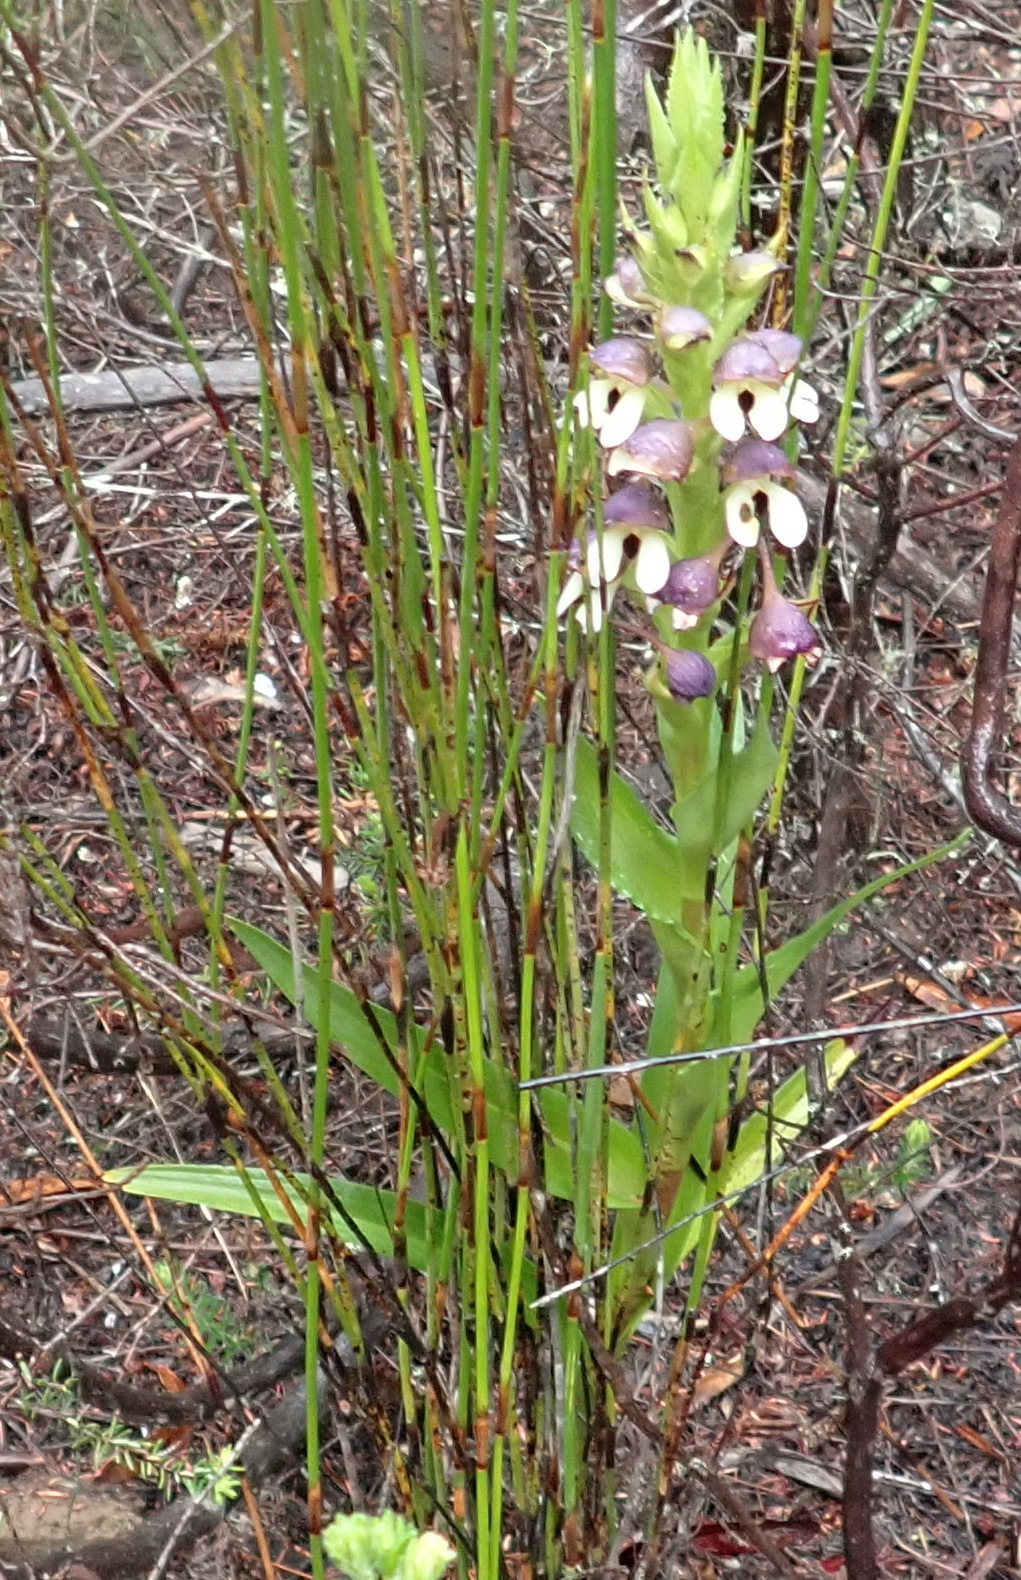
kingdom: Plantae
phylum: Tracheophyta
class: Liliopsida
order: Asparagales
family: Orchidaceae
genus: Disa
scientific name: Disa cornuta
